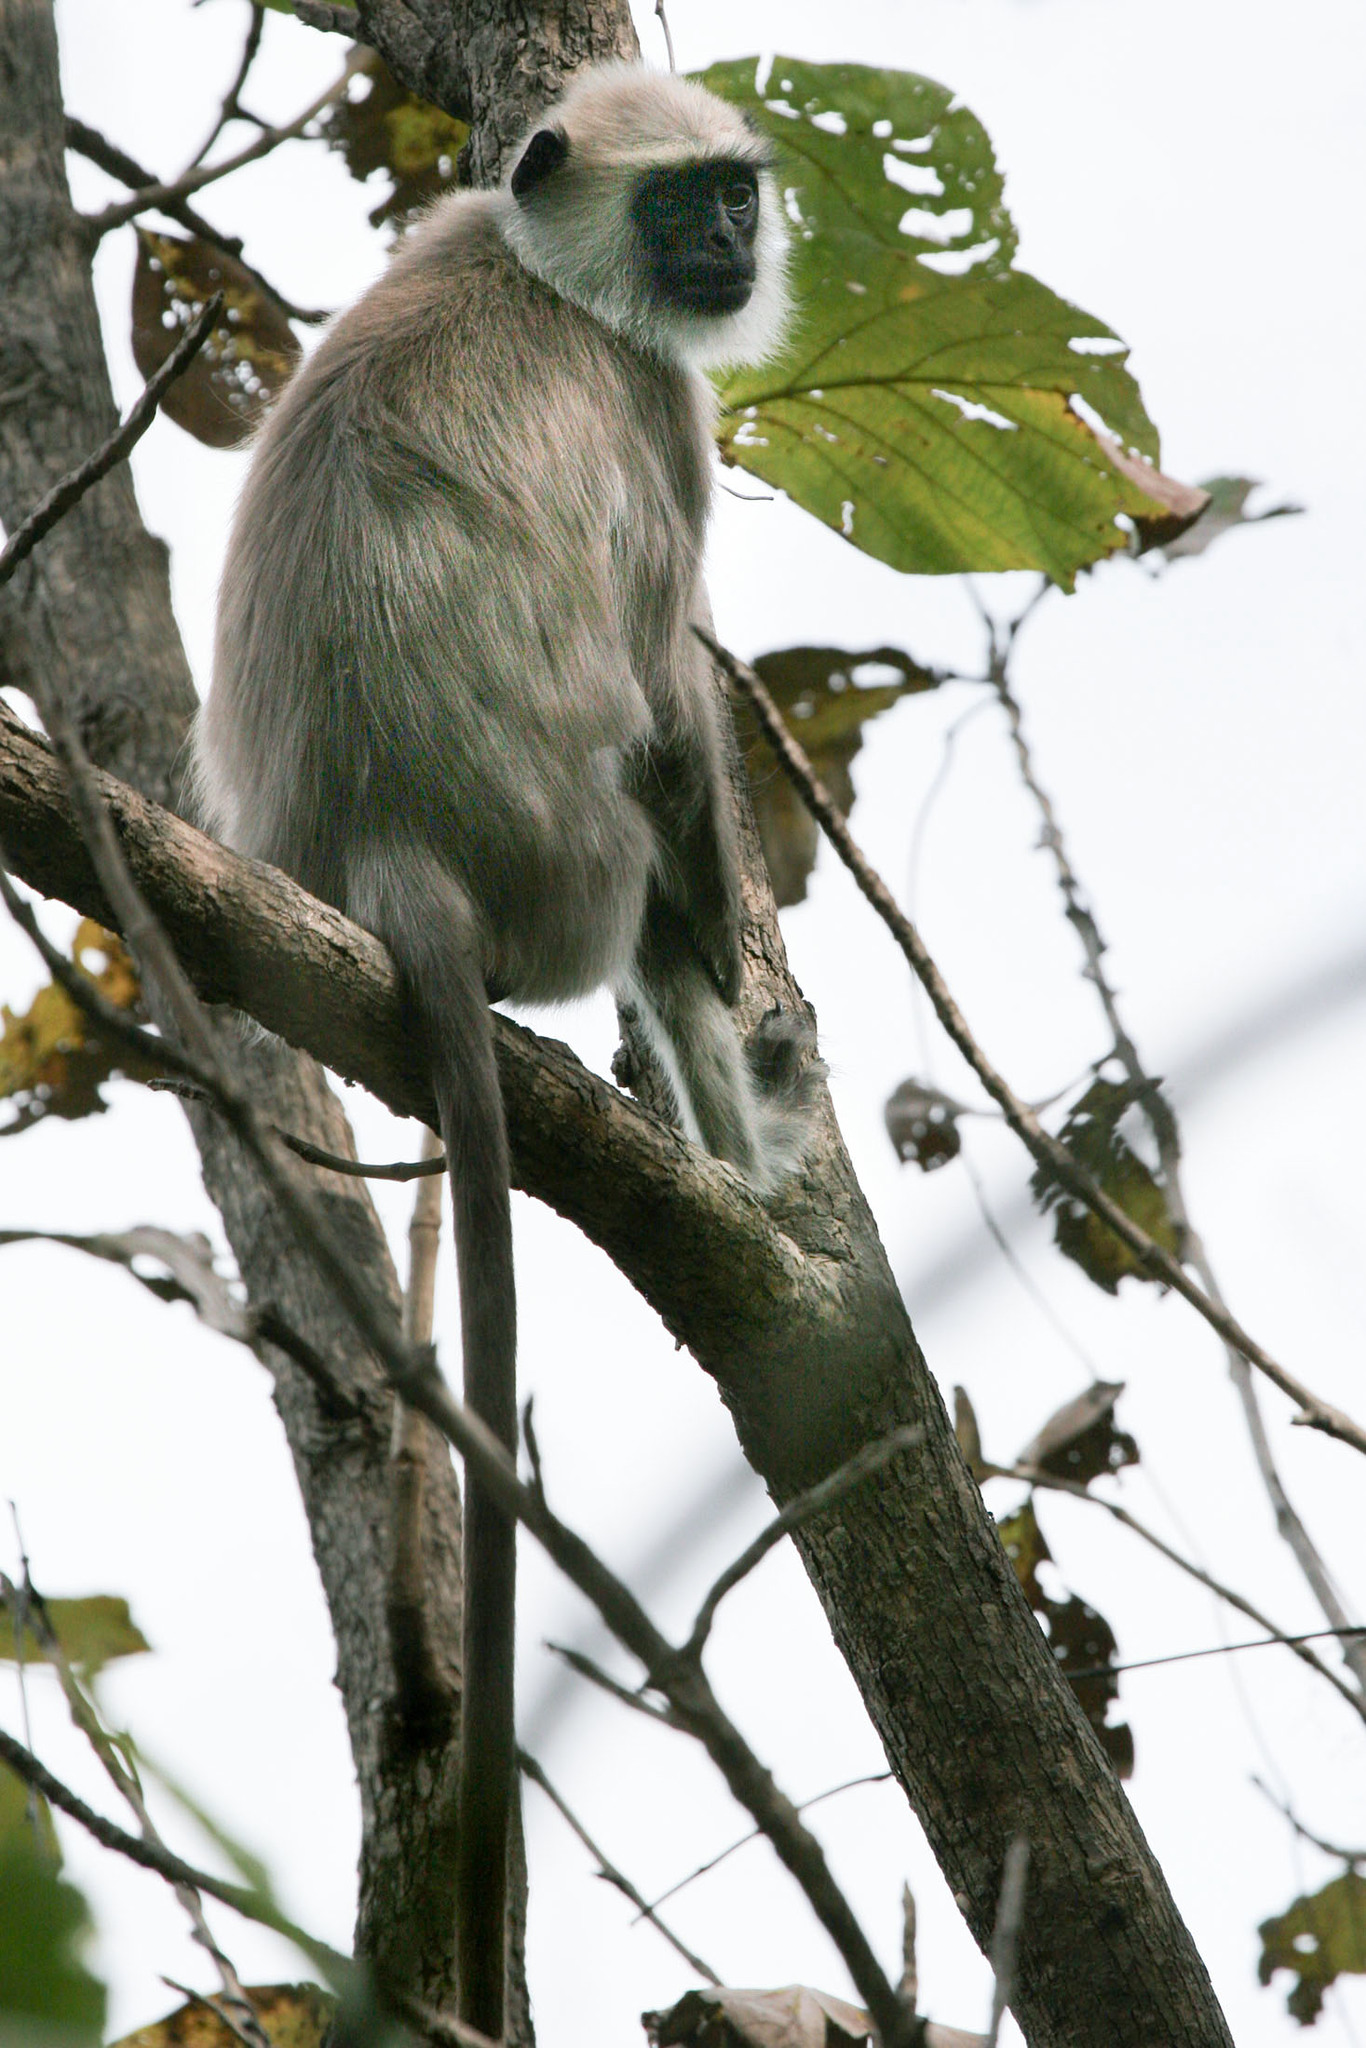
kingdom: Animalia
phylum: Chordata
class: Mammalia
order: Primates
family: Cercopithecidae
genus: Semnopithecus
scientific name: Semnopithecus hypoleucos
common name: Black-footed gray langur
